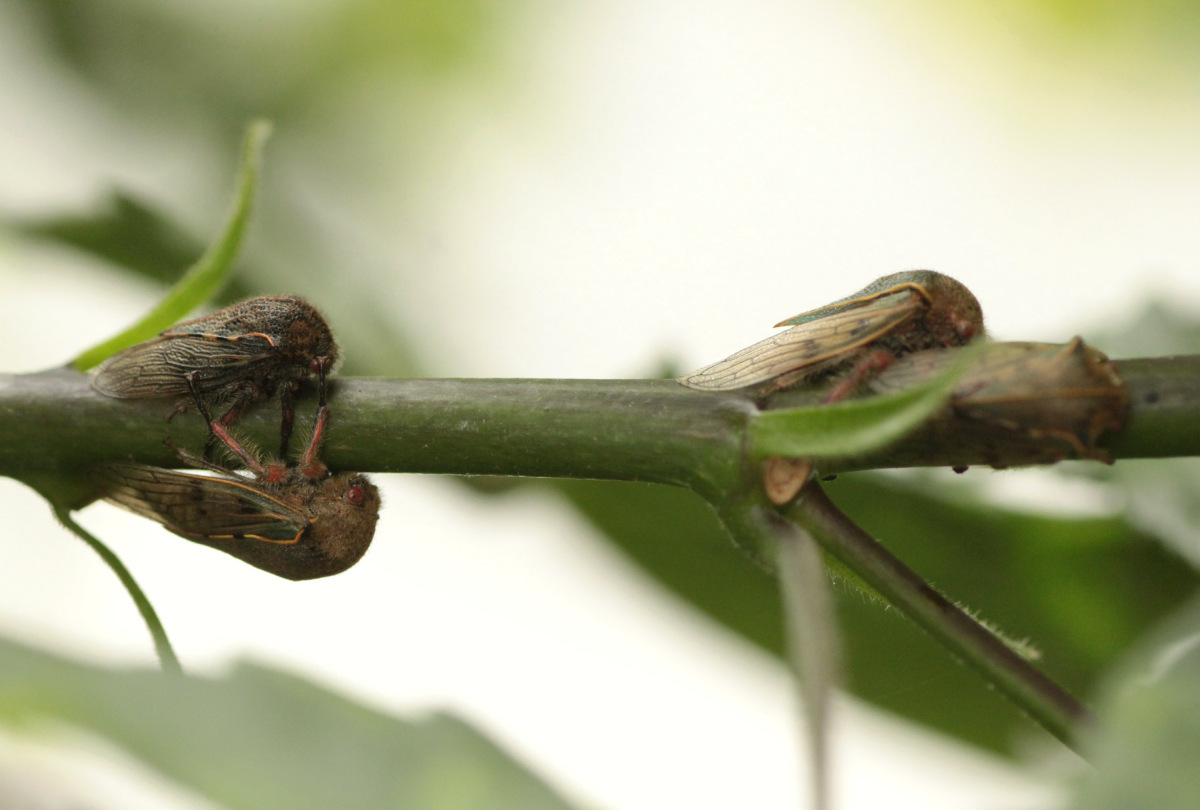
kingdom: Animalia
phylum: Arthropoda
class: Insecta
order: Hemiptera
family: Membracidae
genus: Metcalfiella
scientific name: Metcalfiella jaramillorum
